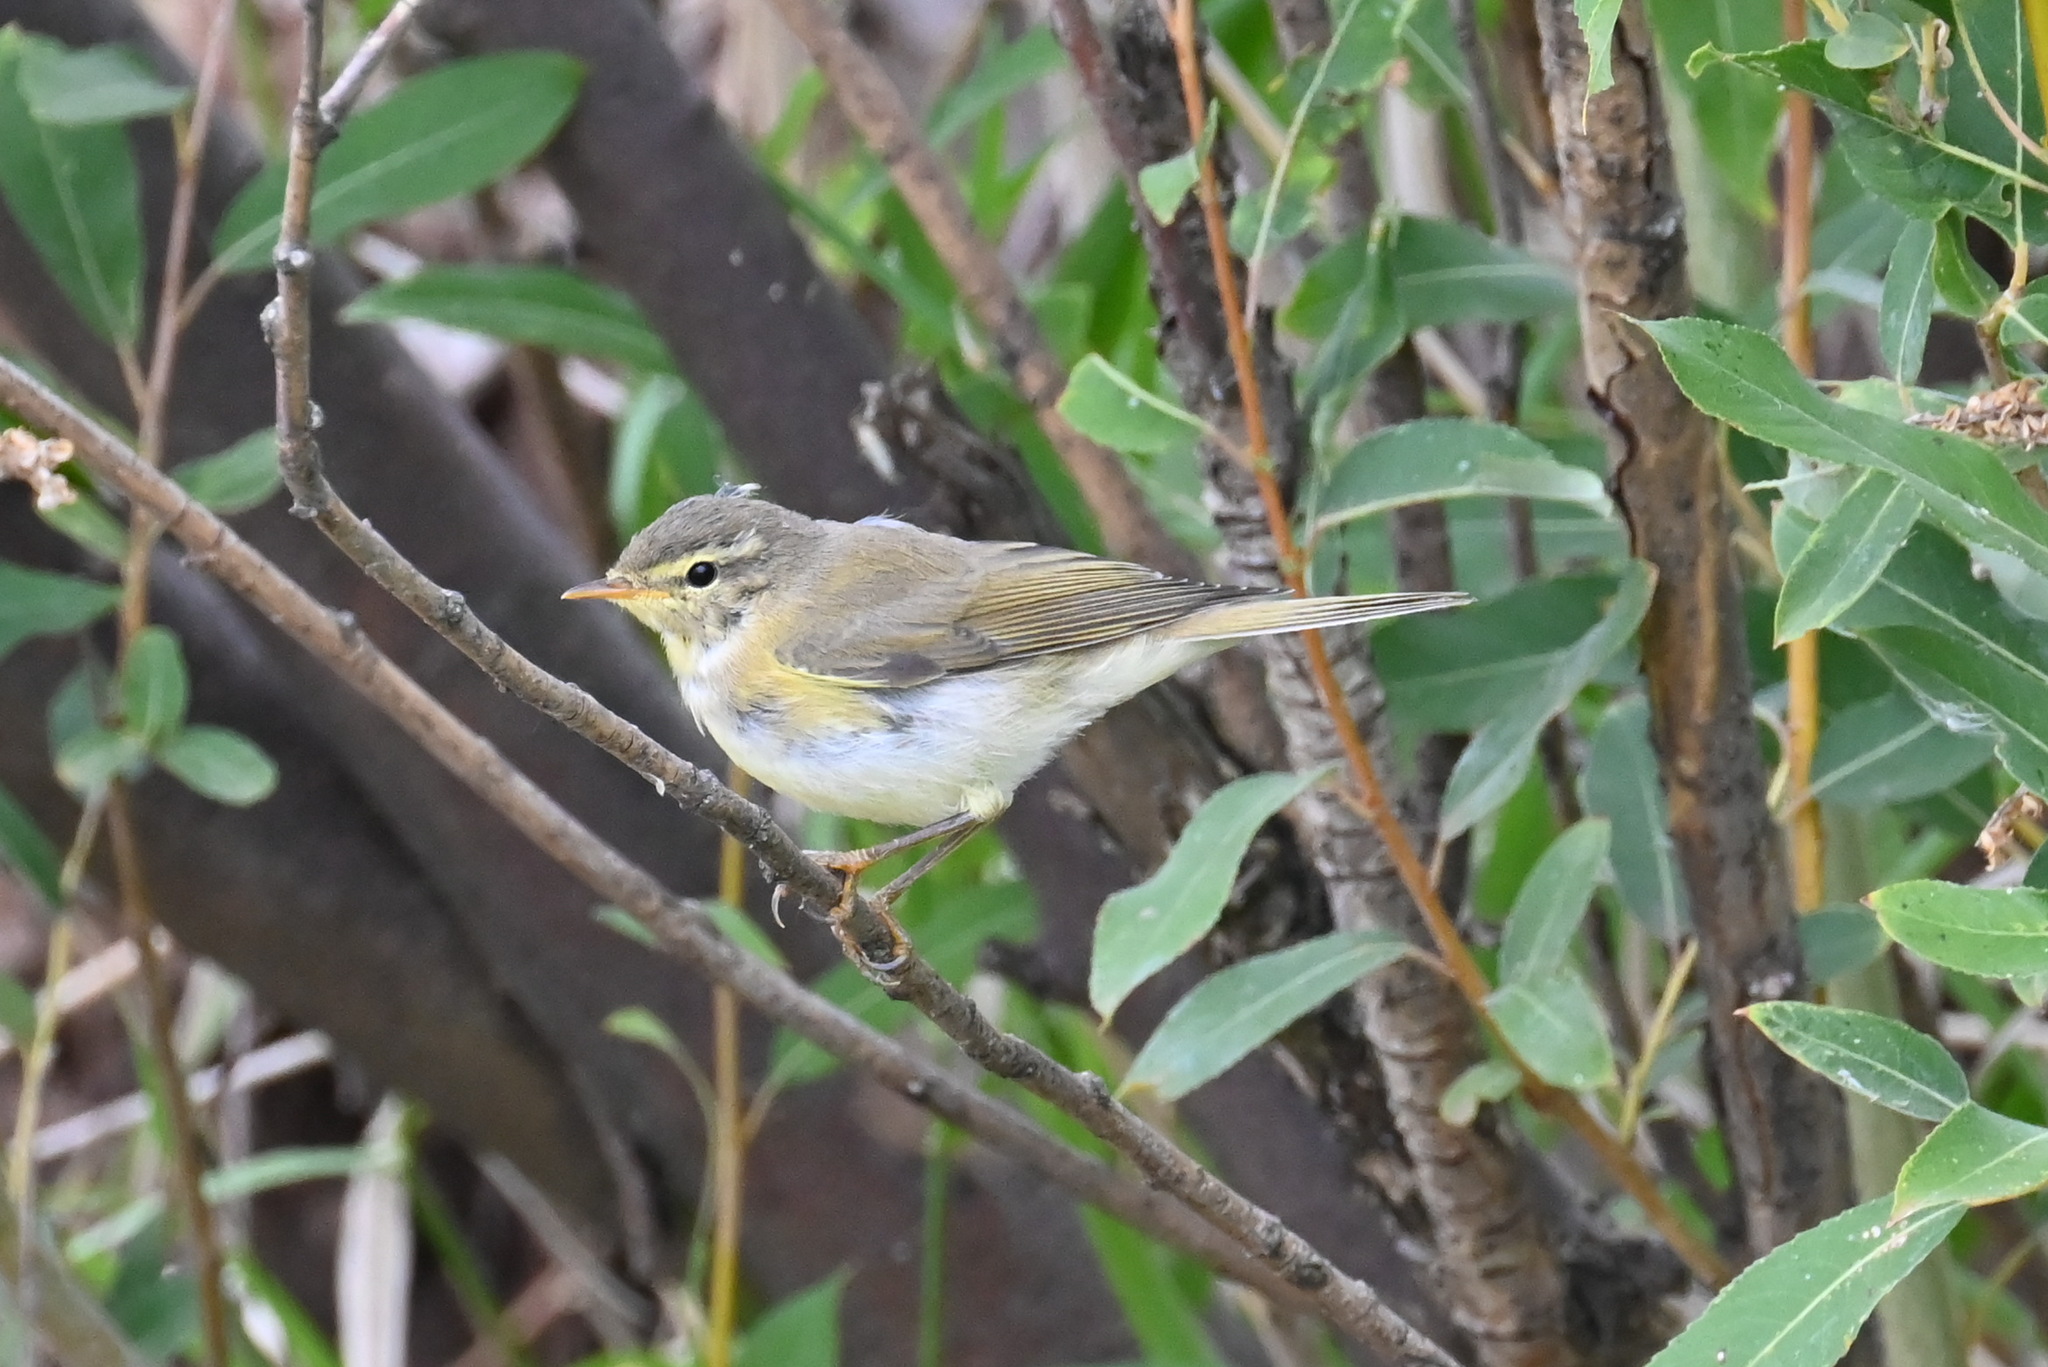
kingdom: Animalia
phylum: Chordata
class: Aves
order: Passeriformes
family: Phylloscopidae
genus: Phylloscopus
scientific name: Phylloscopus sibillatrix
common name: Wood warbler
